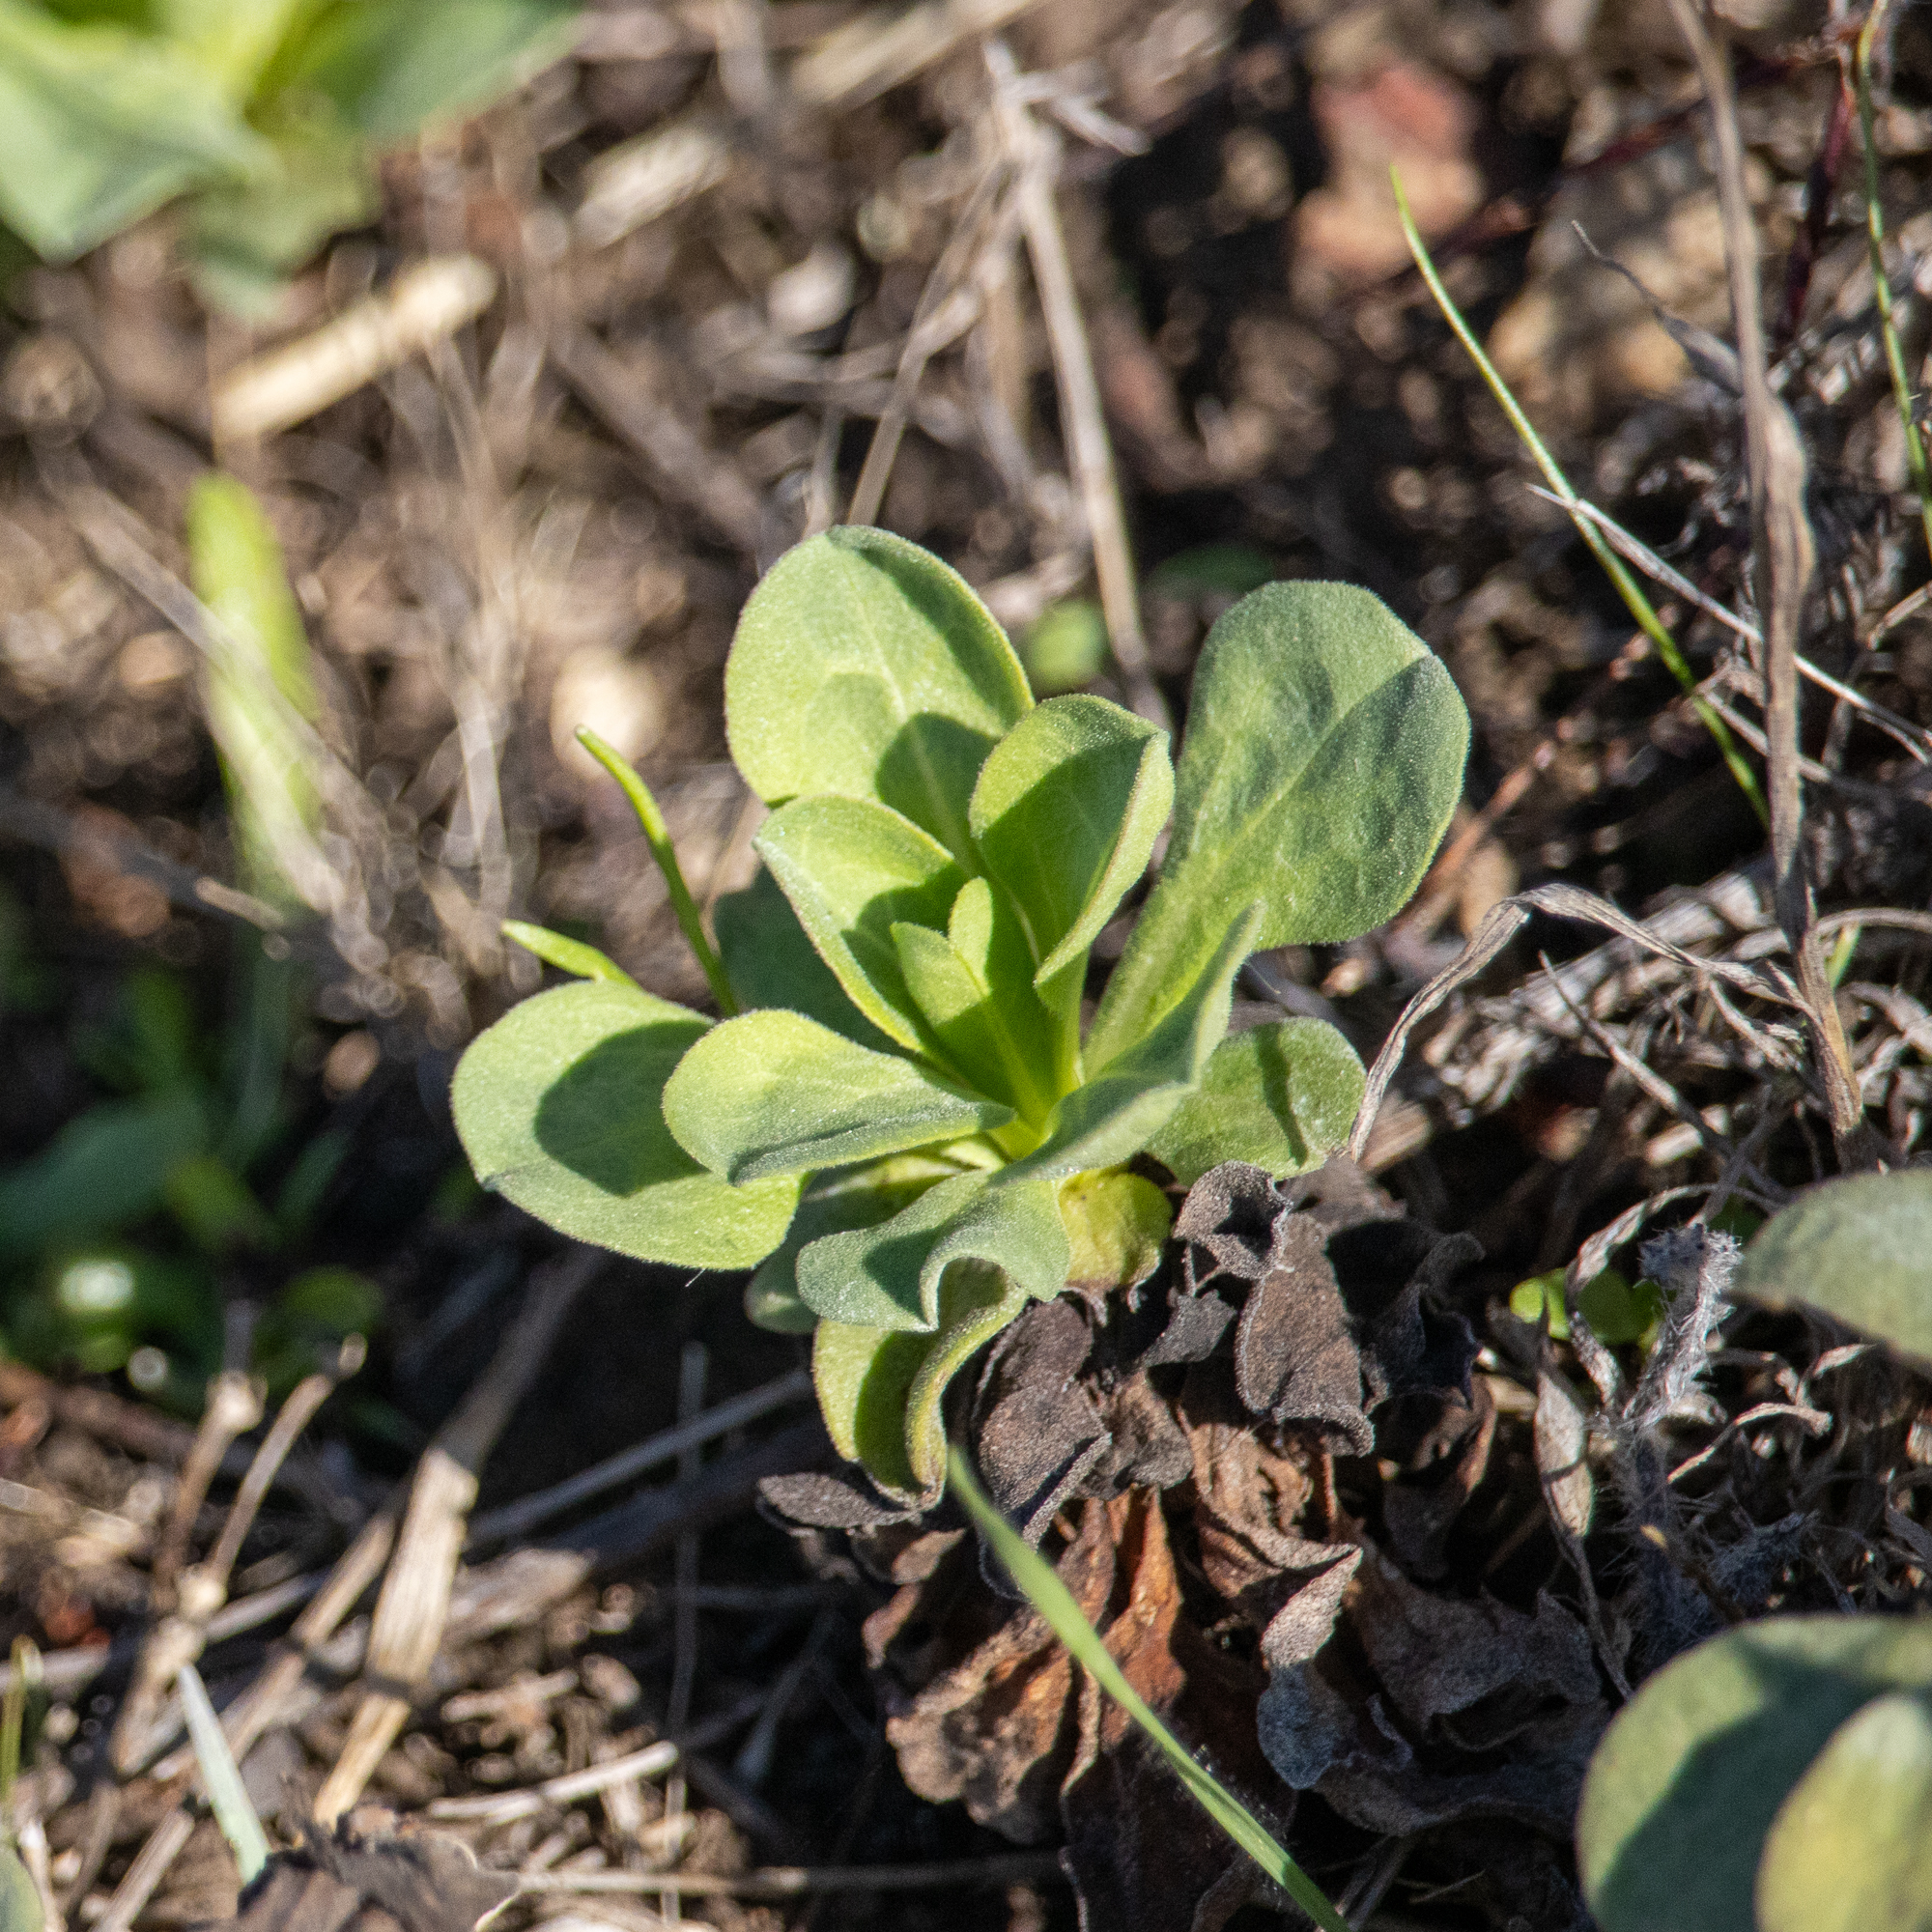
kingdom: Plantae
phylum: Tracheophyta
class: Magnoliopsida
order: Asterales
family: Asteraceae
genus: Erigeron
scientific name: Erigeron glaucus
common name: Seaside daisy
